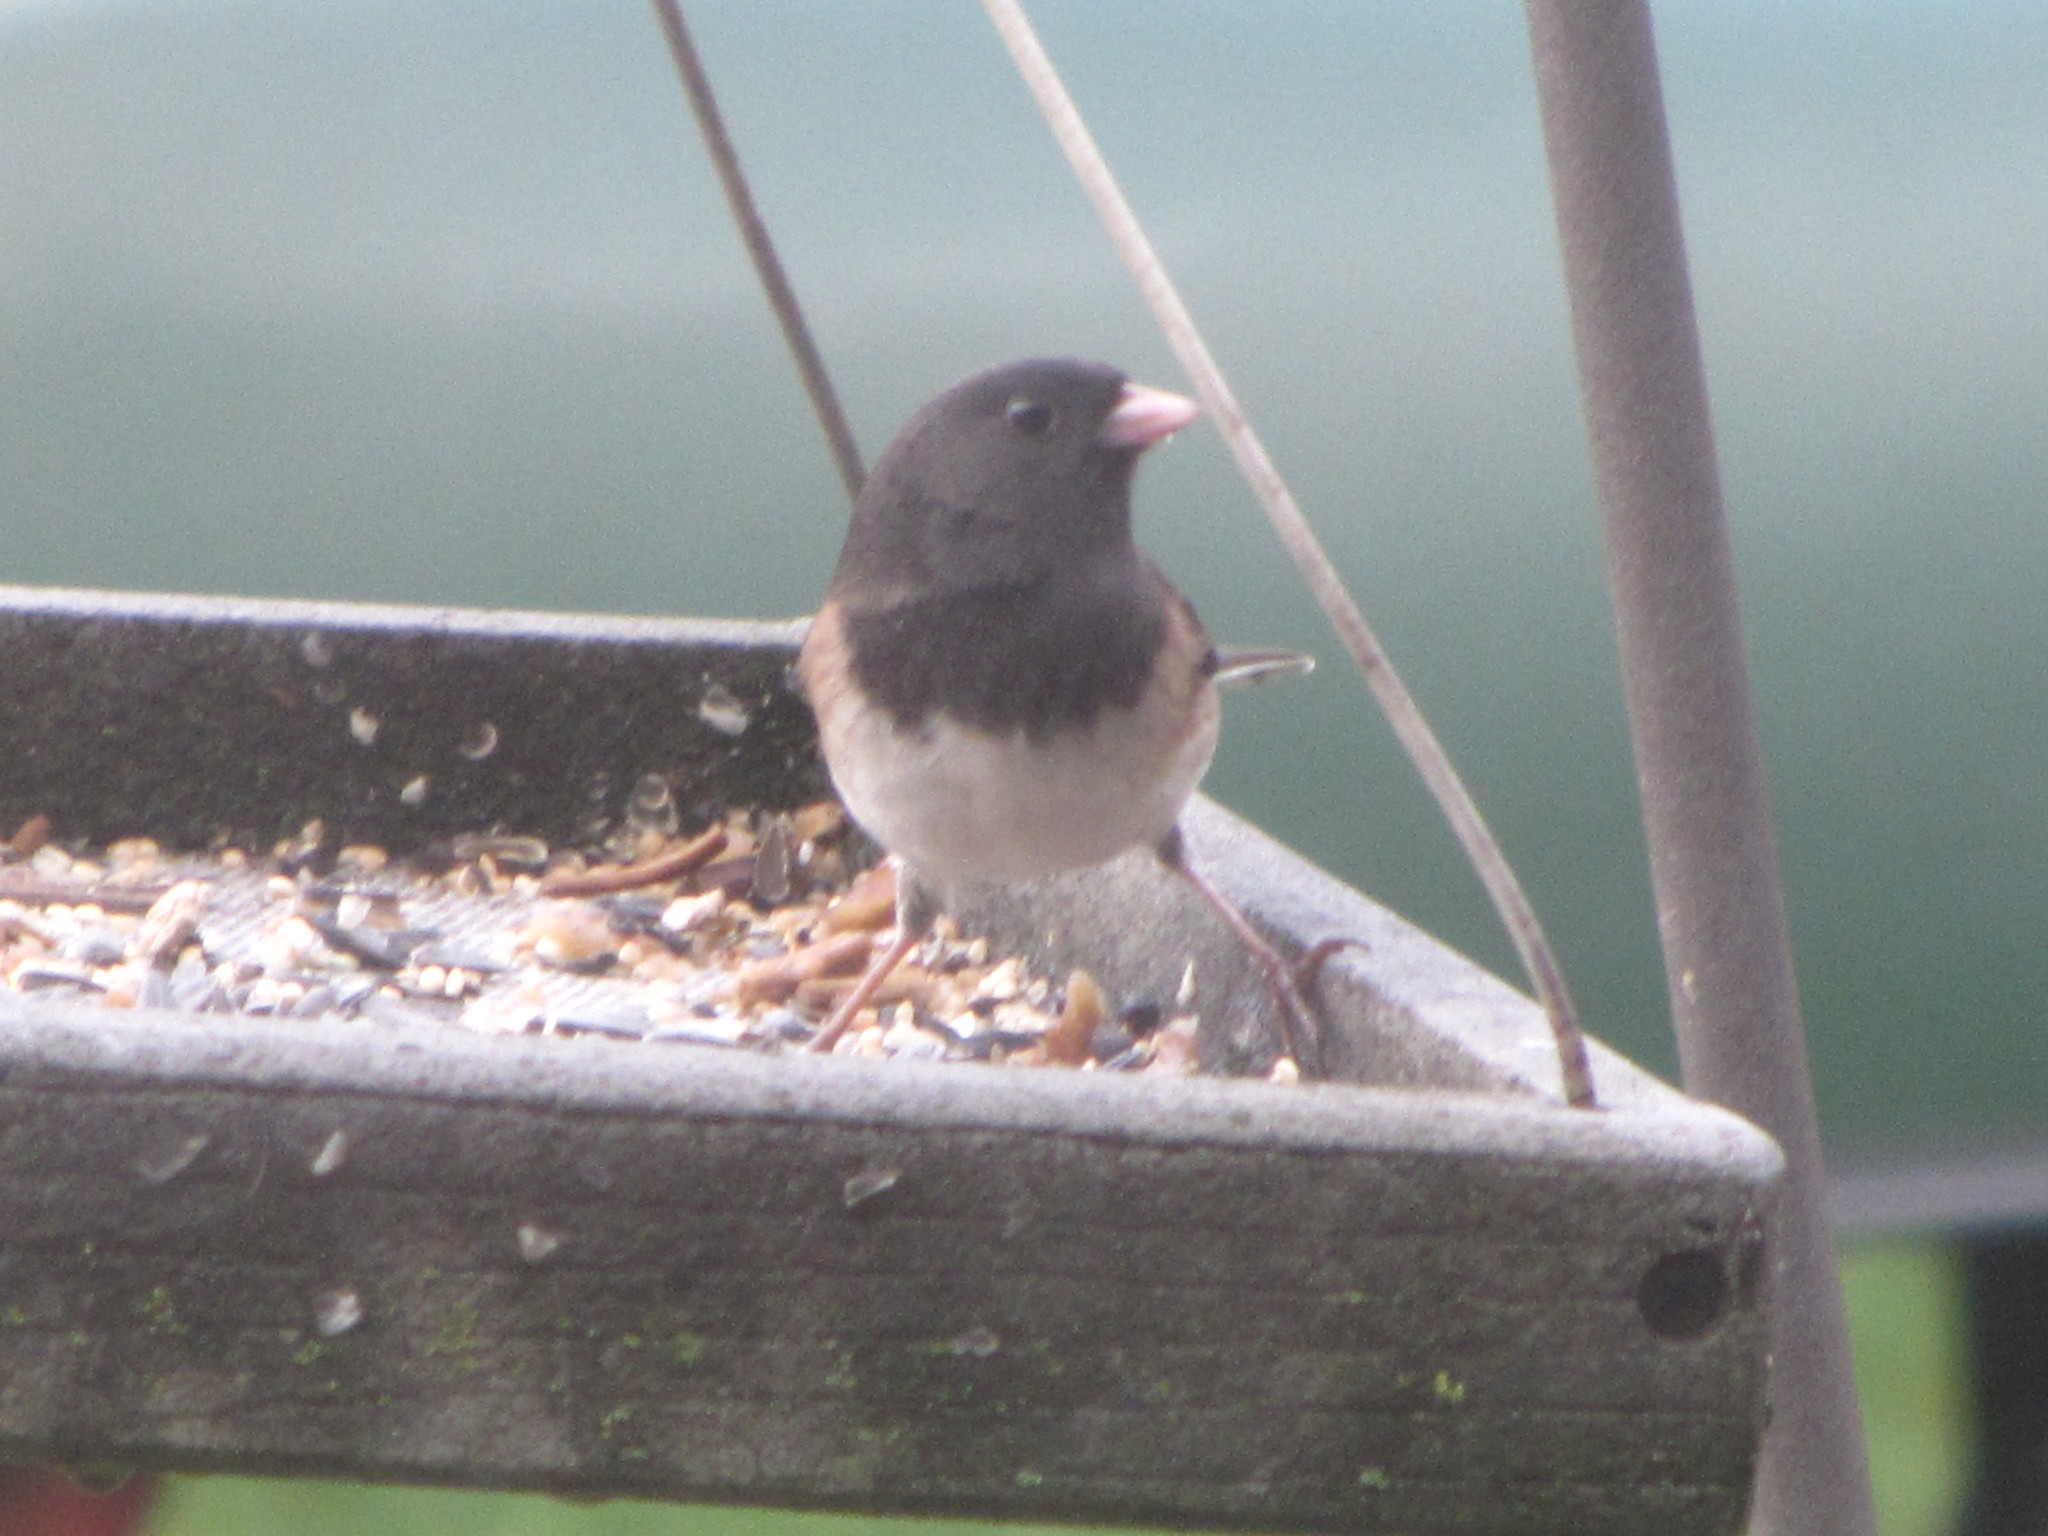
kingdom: Animalia
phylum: Chordata
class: Aves
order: Passeriformes
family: Passerellidae
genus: Junco
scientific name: Junco hyemalis
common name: Dark-eyed junco
